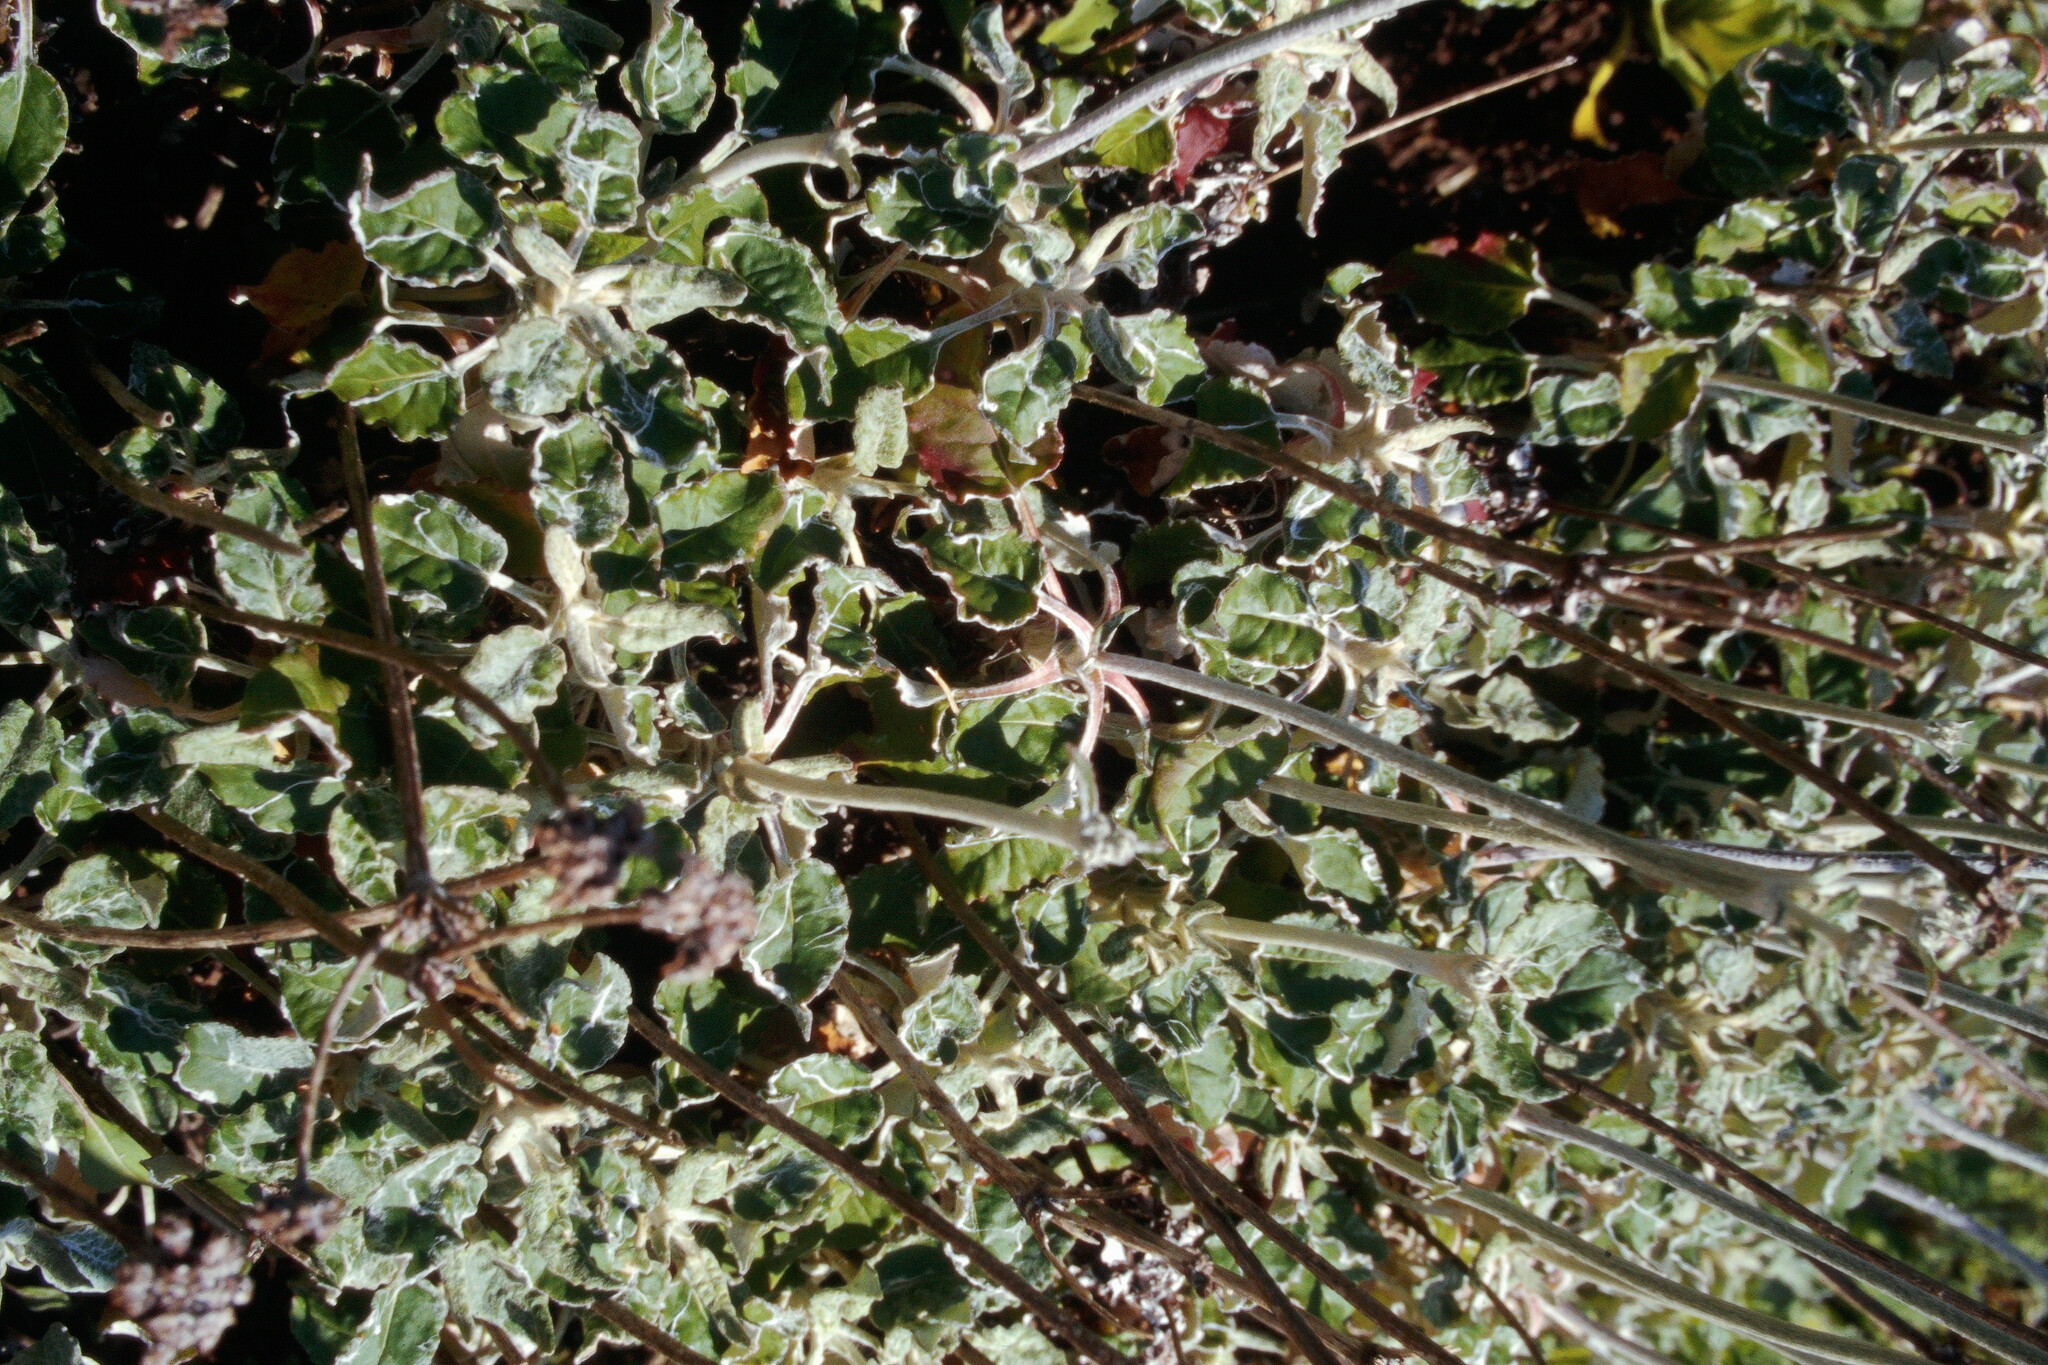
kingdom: Plantae
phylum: Tracheophyta
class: Magnoliopsida
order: Caryophyllales
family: Polygonaceae
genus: Eriogonum
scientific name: Eriogonum latifolium
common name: Seaside wild buckwheat
